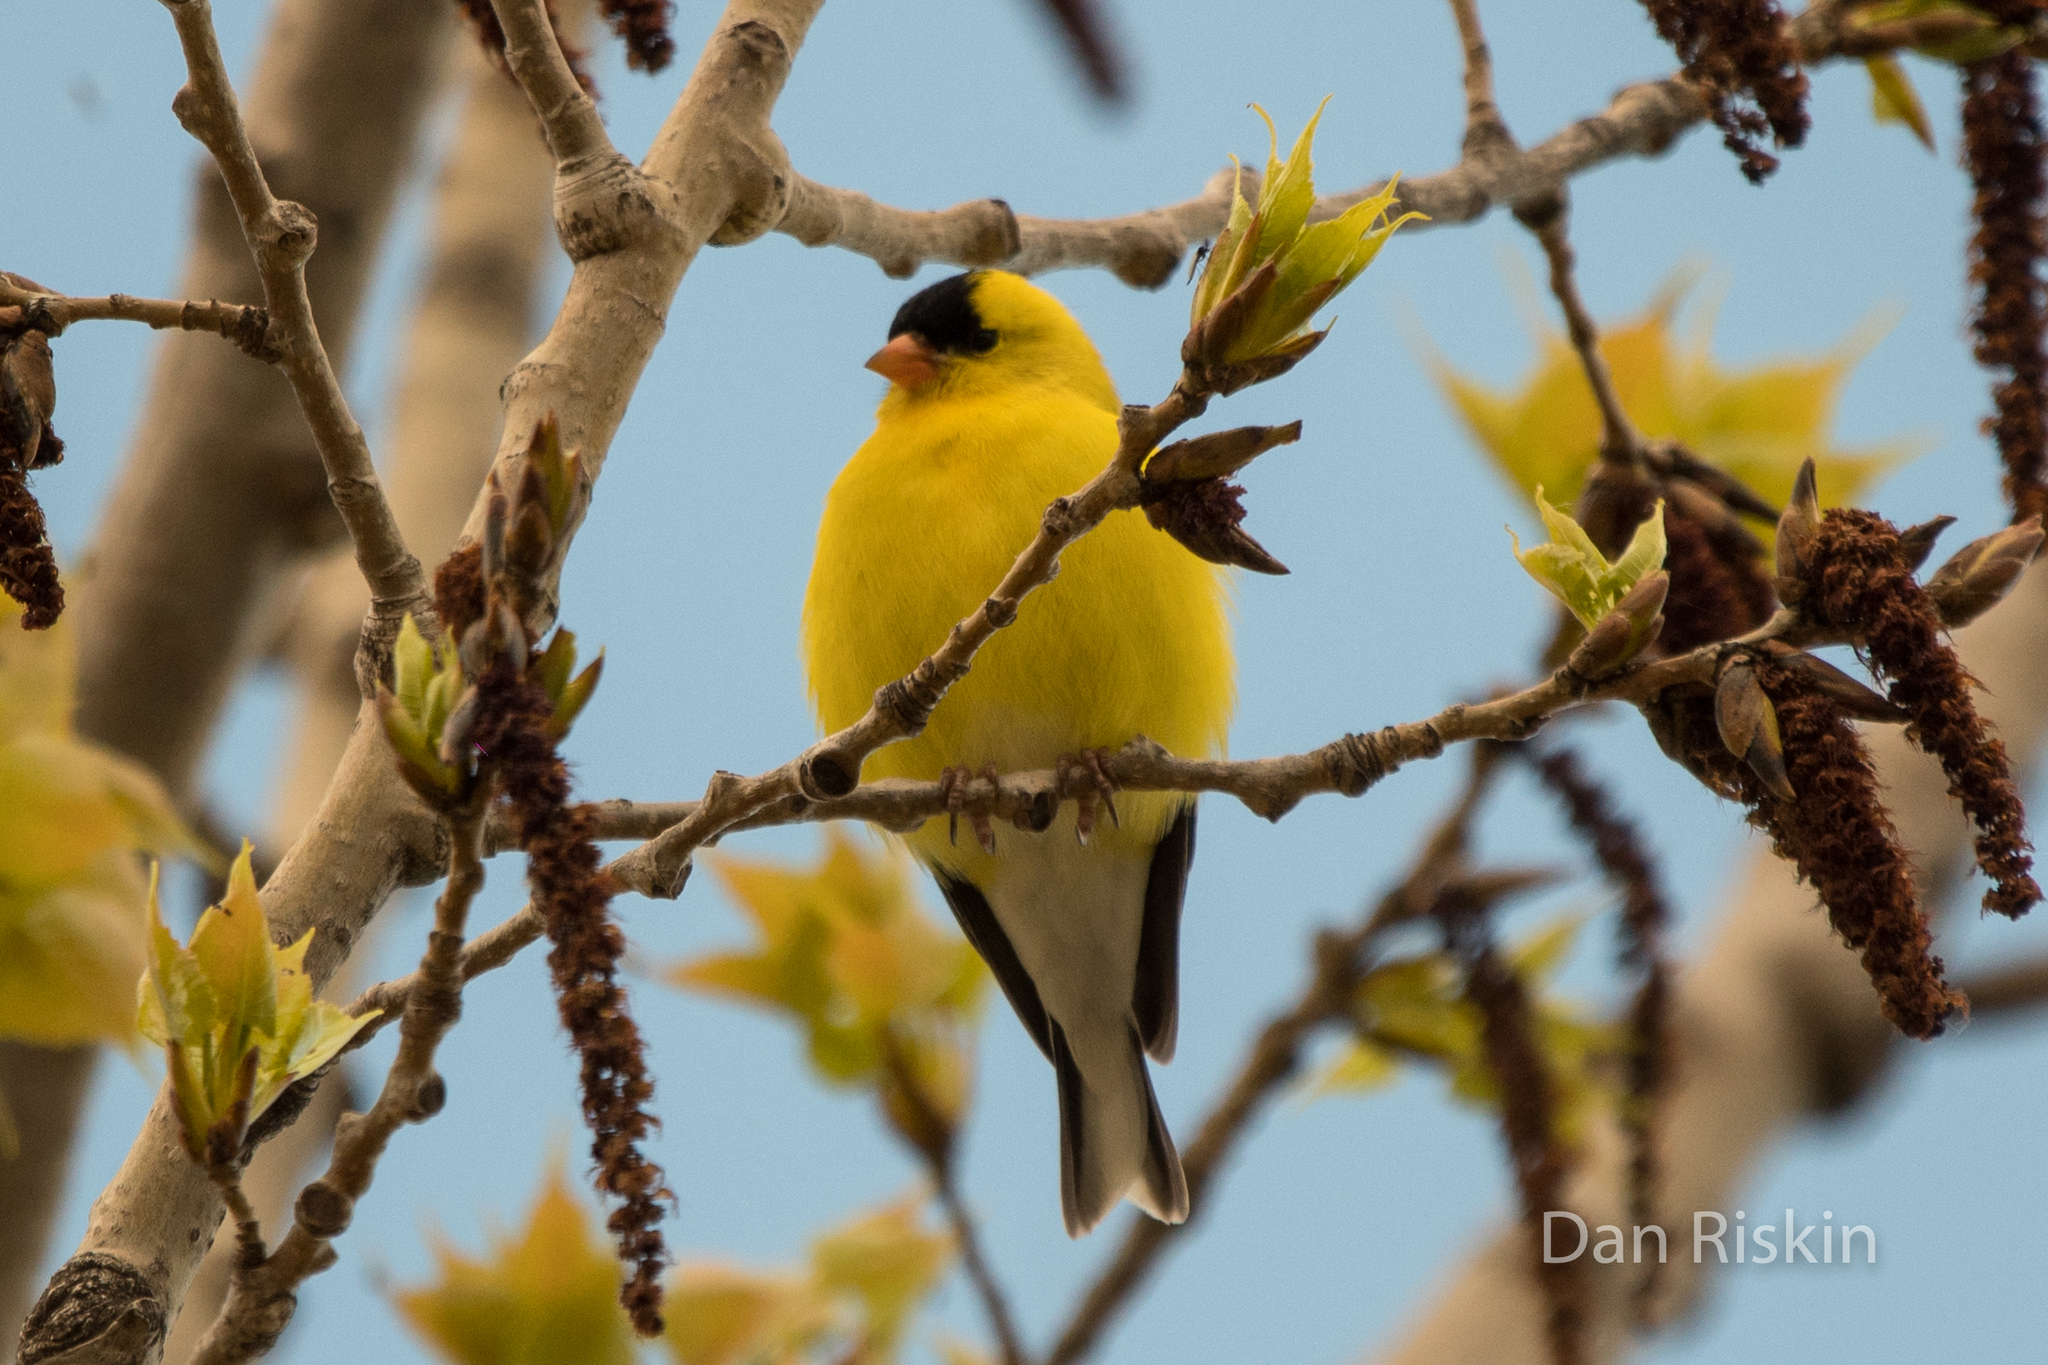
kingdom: Animalia
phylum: Chordata
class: Aves
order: Passeriformes
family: Fringillidae
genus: Spinus
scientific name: Spinus tristis
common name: American goldfinch
